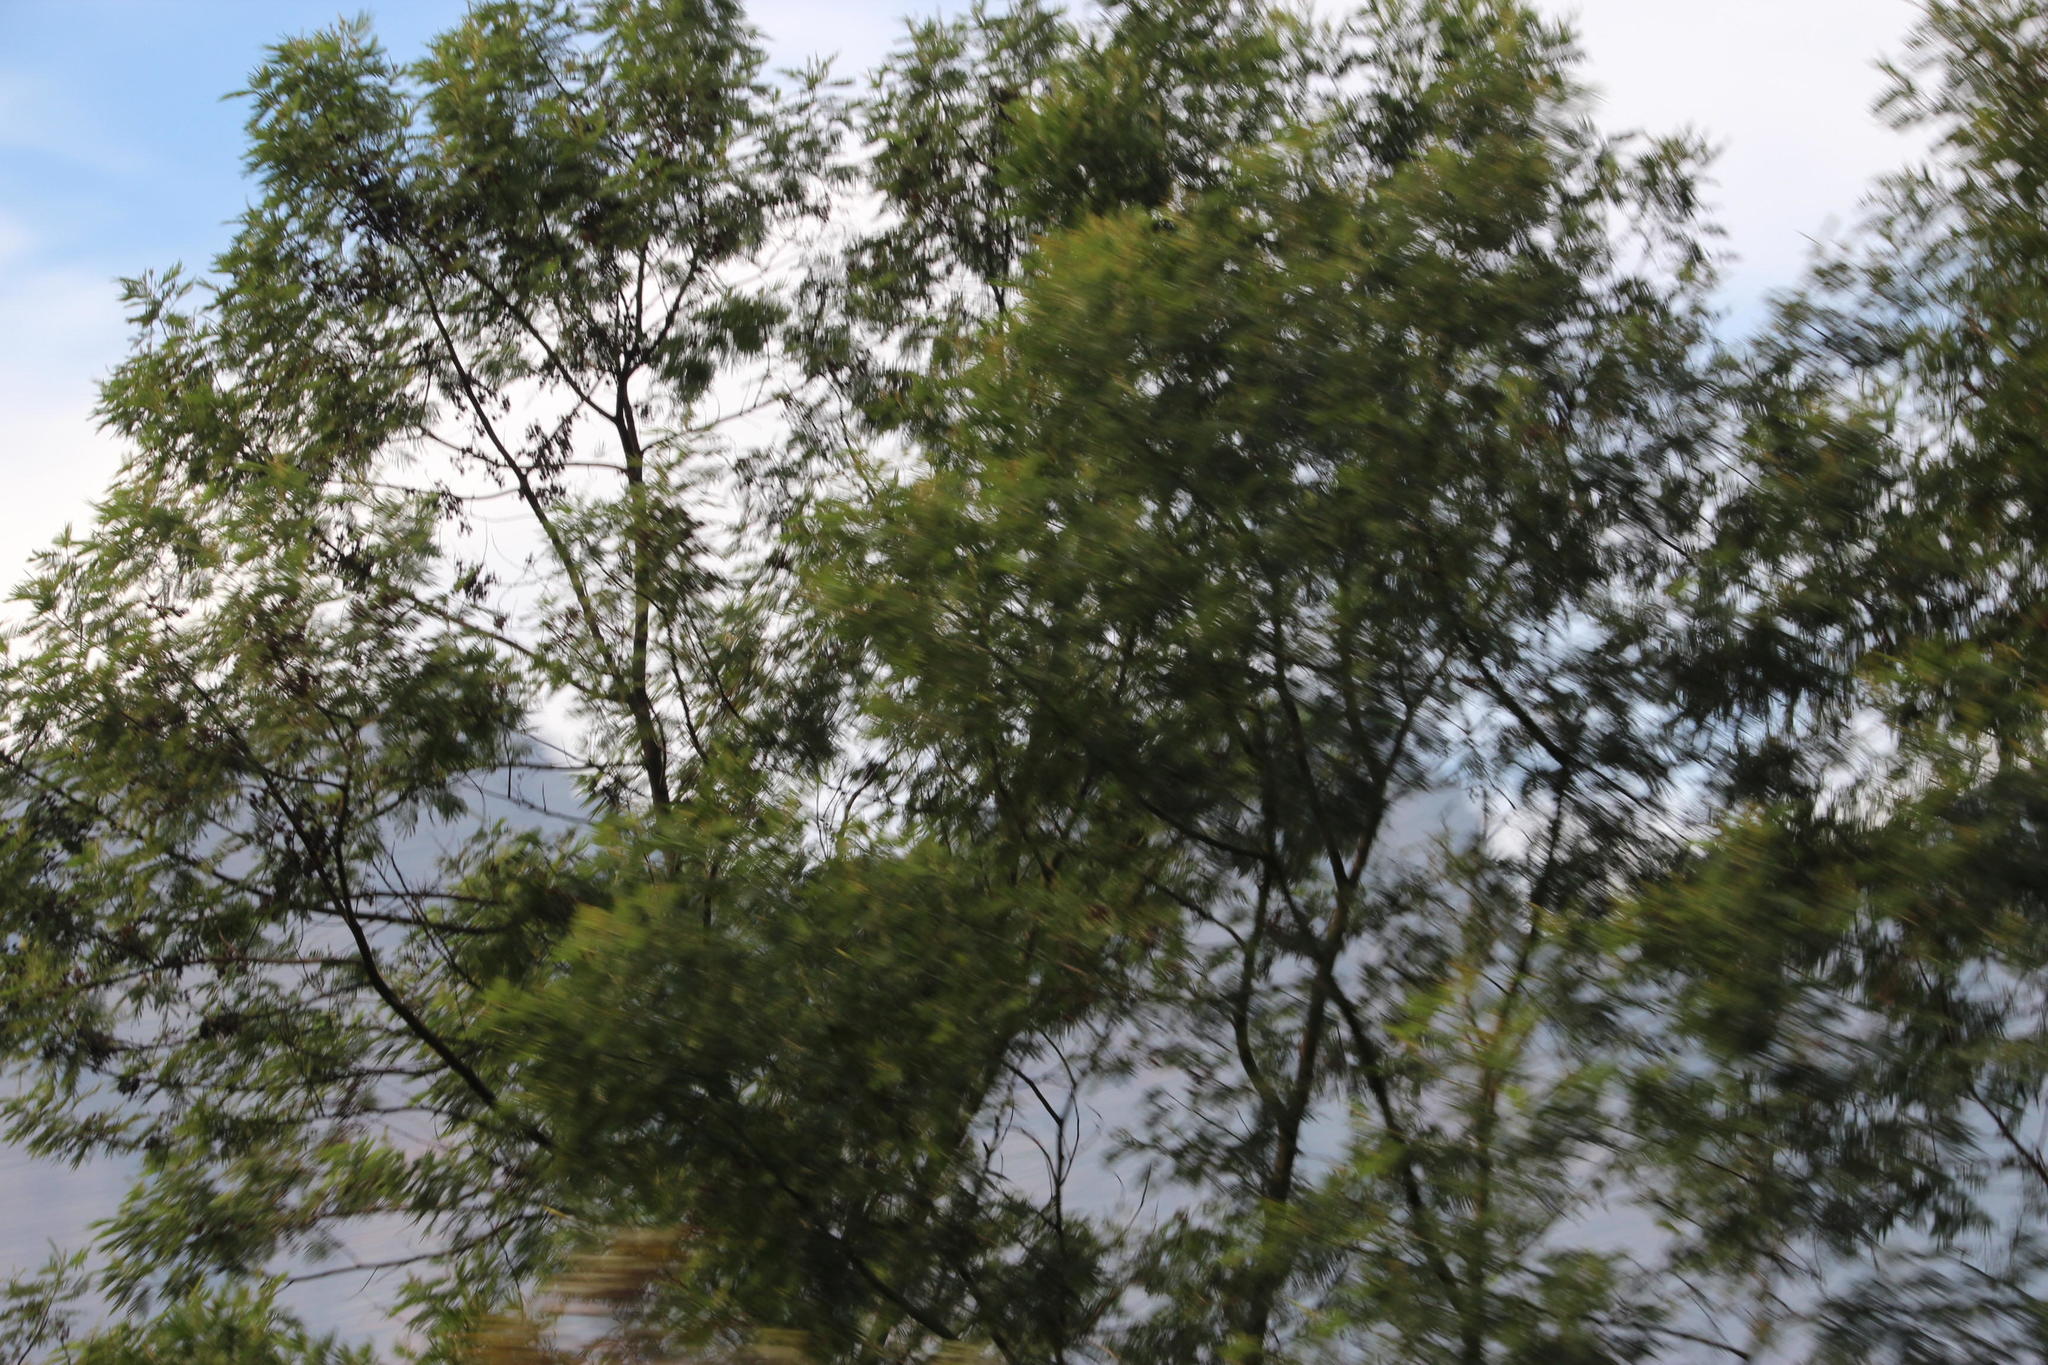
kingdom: Plantae
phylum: Tracheophyta
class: Magnoliopsida
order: Fabales
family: Fabaceae
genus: Acacia
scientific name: Acacia mearnsii
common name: Black wattle
